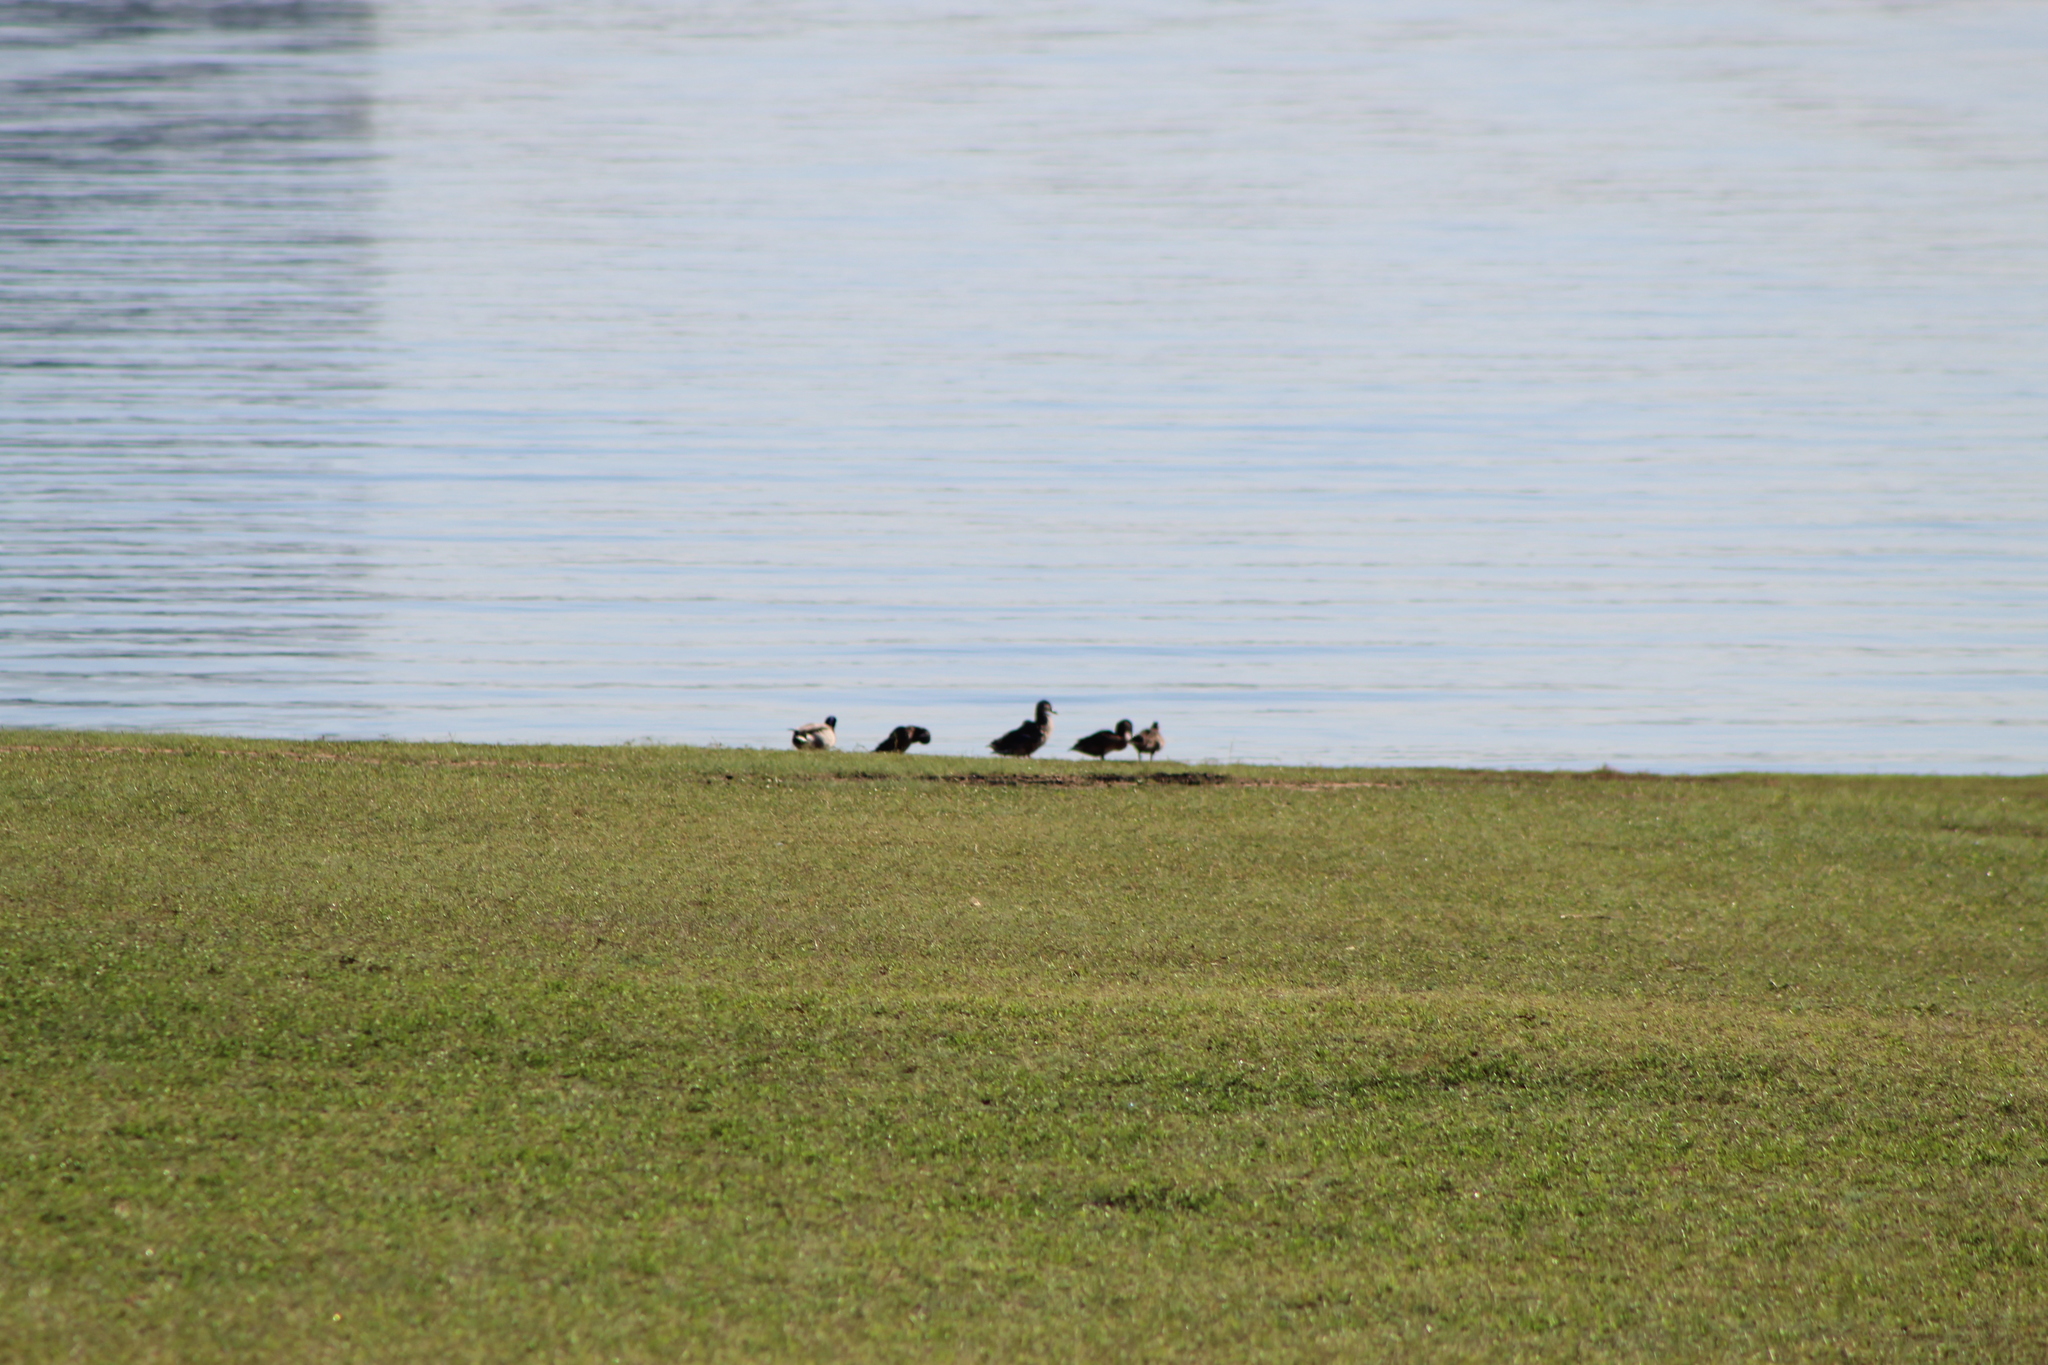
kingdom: Animalia
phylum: Chordata
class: Aves
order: Anseriformes
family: Anatidae
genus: Anas
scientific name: Anas platyrhynchos
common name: Mallard
